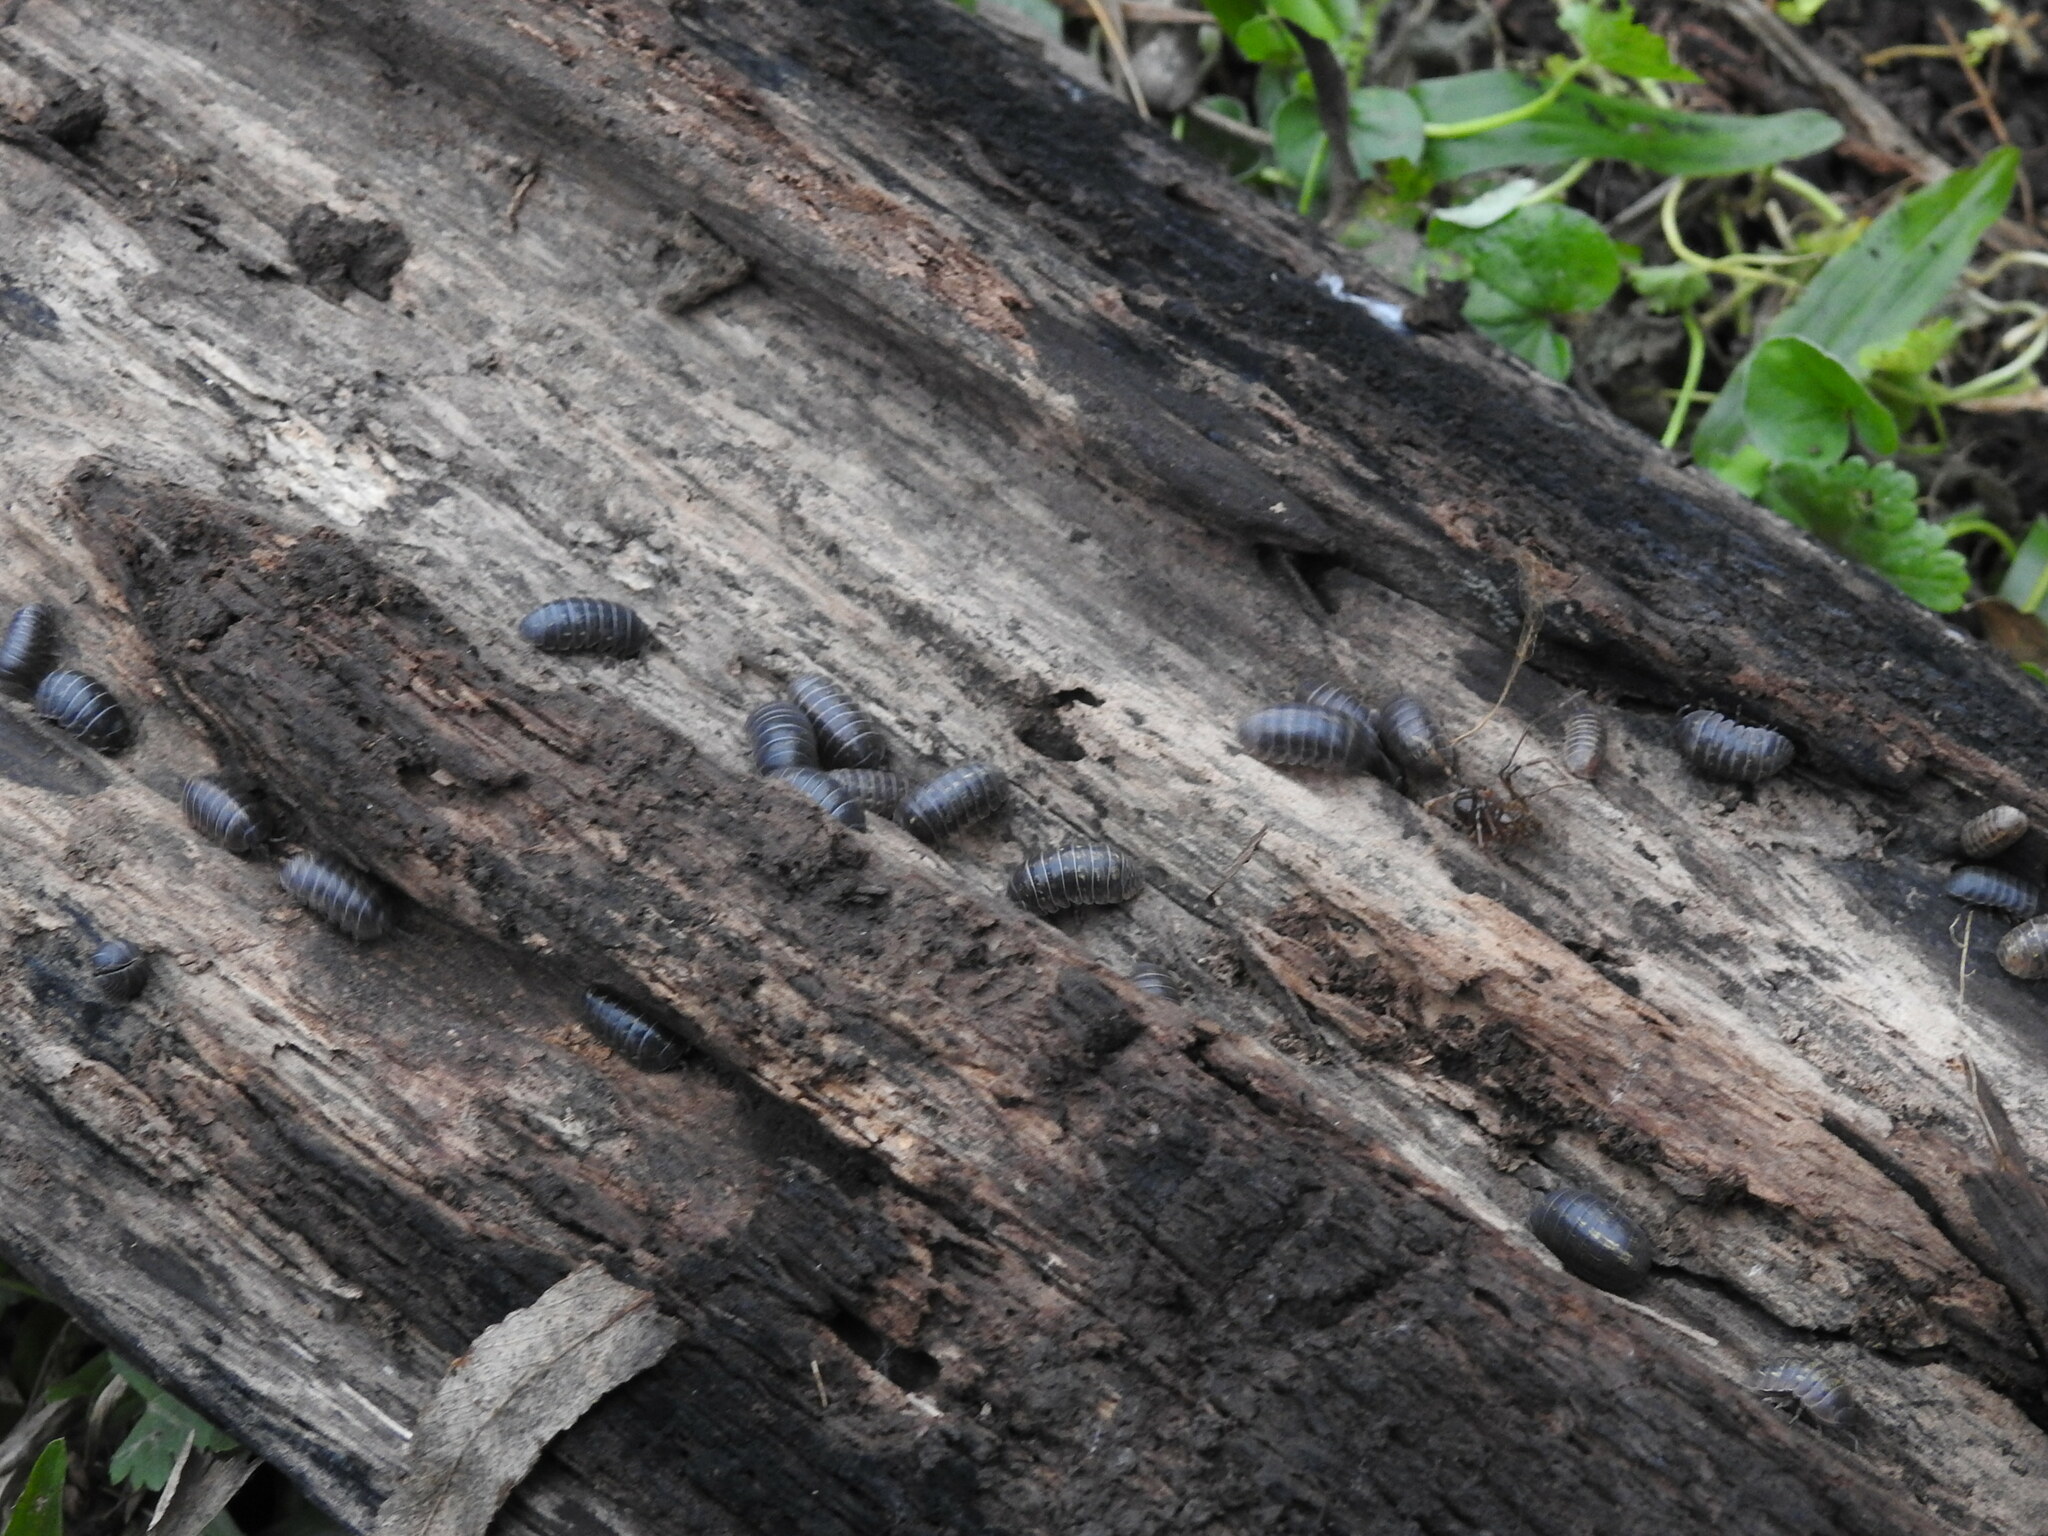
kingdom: Animalia
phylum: Arthropoda
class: Malacostraca
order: Isopoda
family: Armadillidiidae
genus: Armadillidium
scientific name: Armadillidium vulgare
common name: Common pill woodlouse
